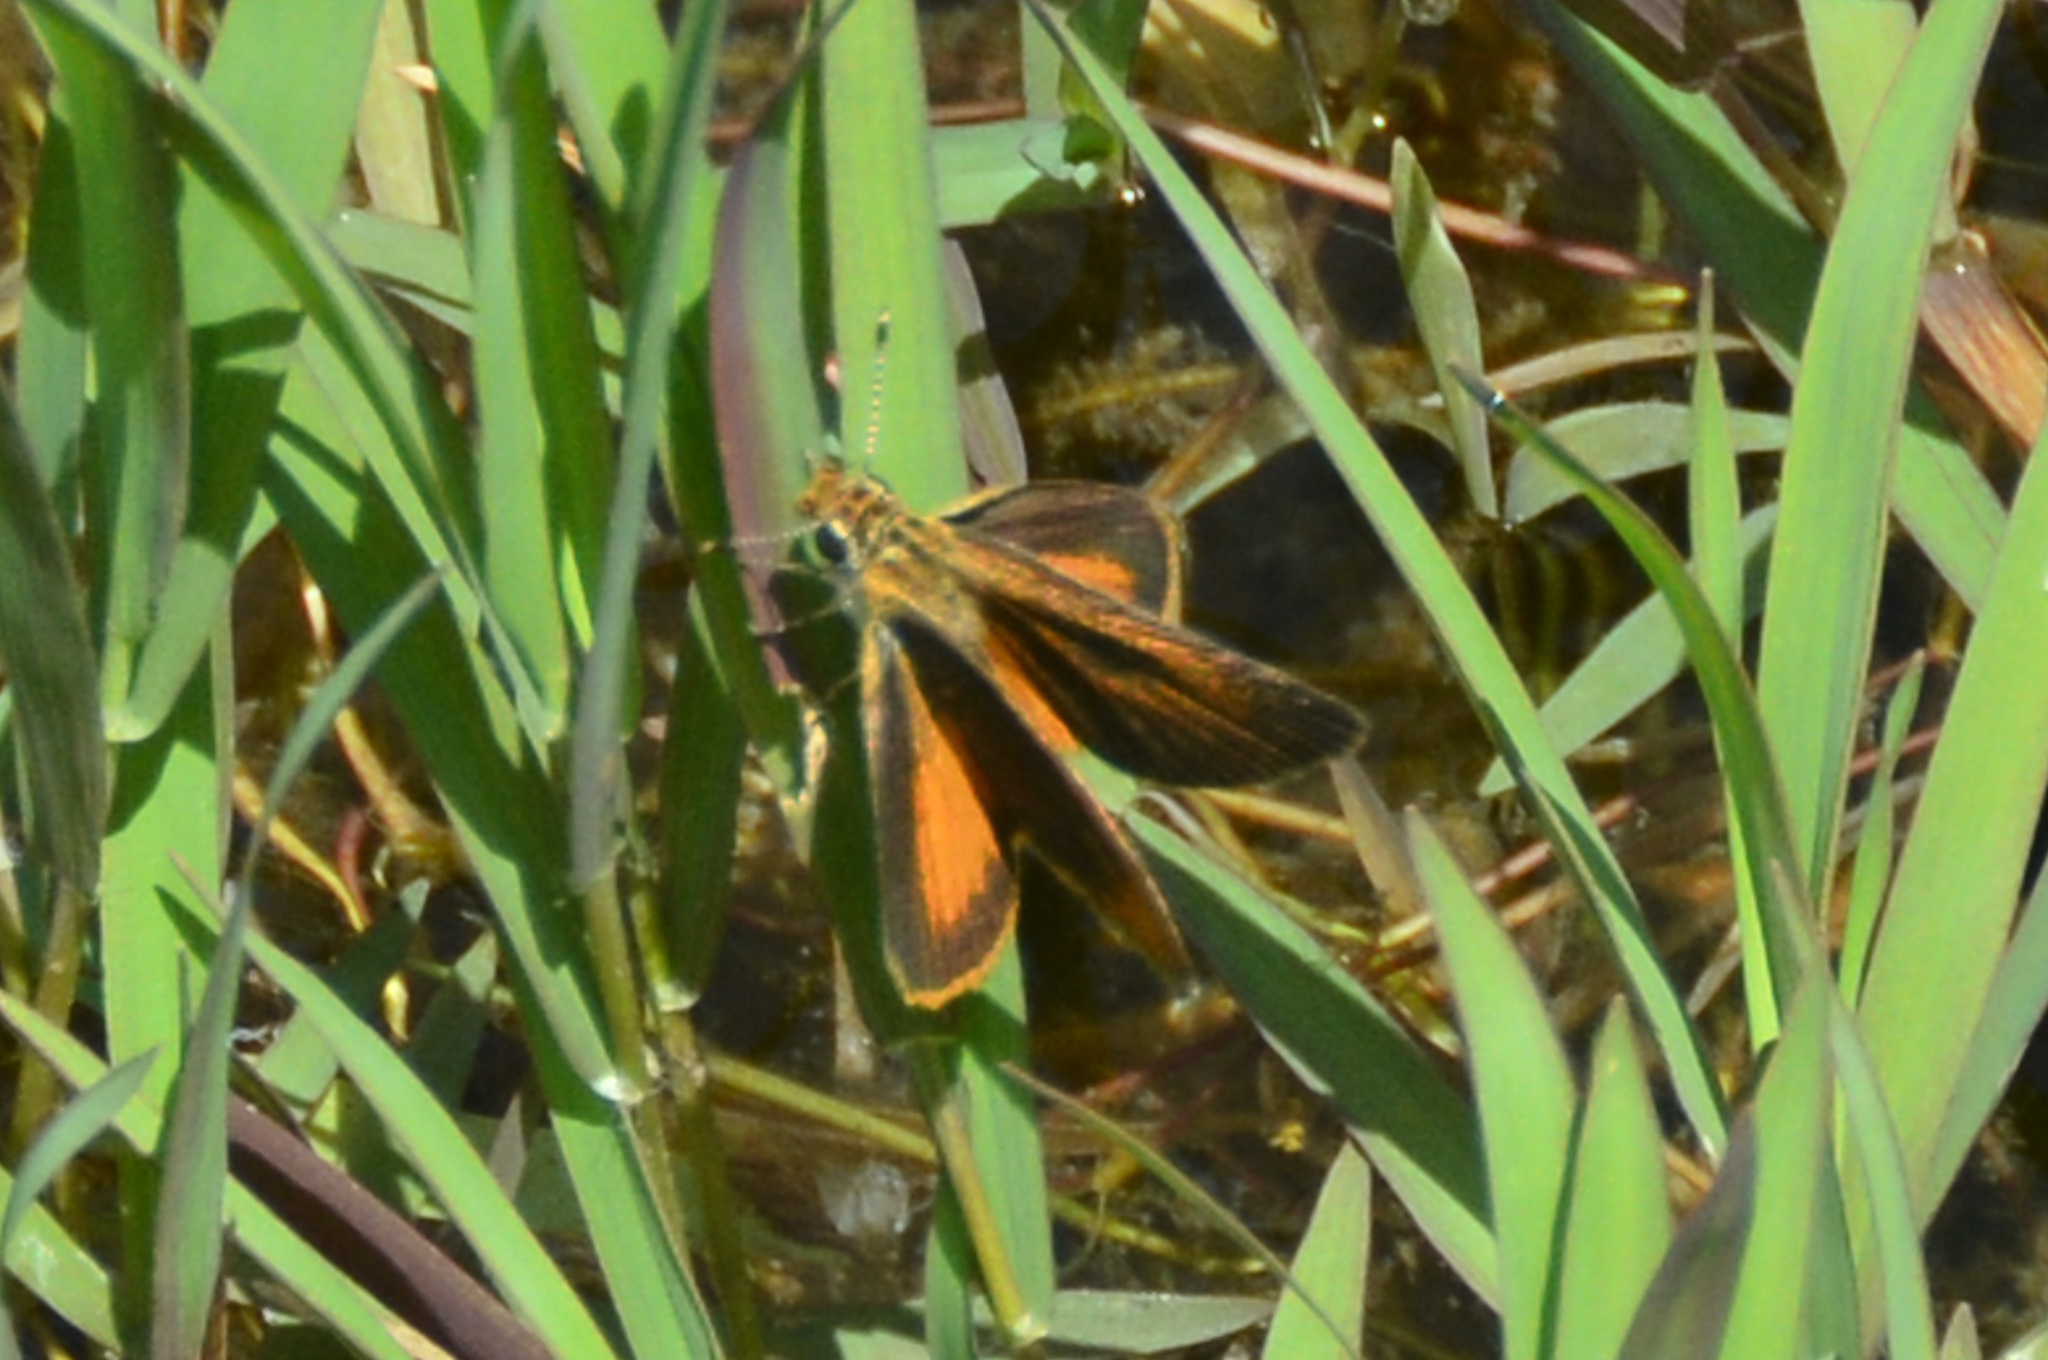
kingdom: Animalia
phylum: Arthropoda
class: Insecta
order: Lepidoptera
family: Hesperiidae
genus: Ancyloxypha
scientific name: Ancyloxypha numitor
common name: Least skipper
